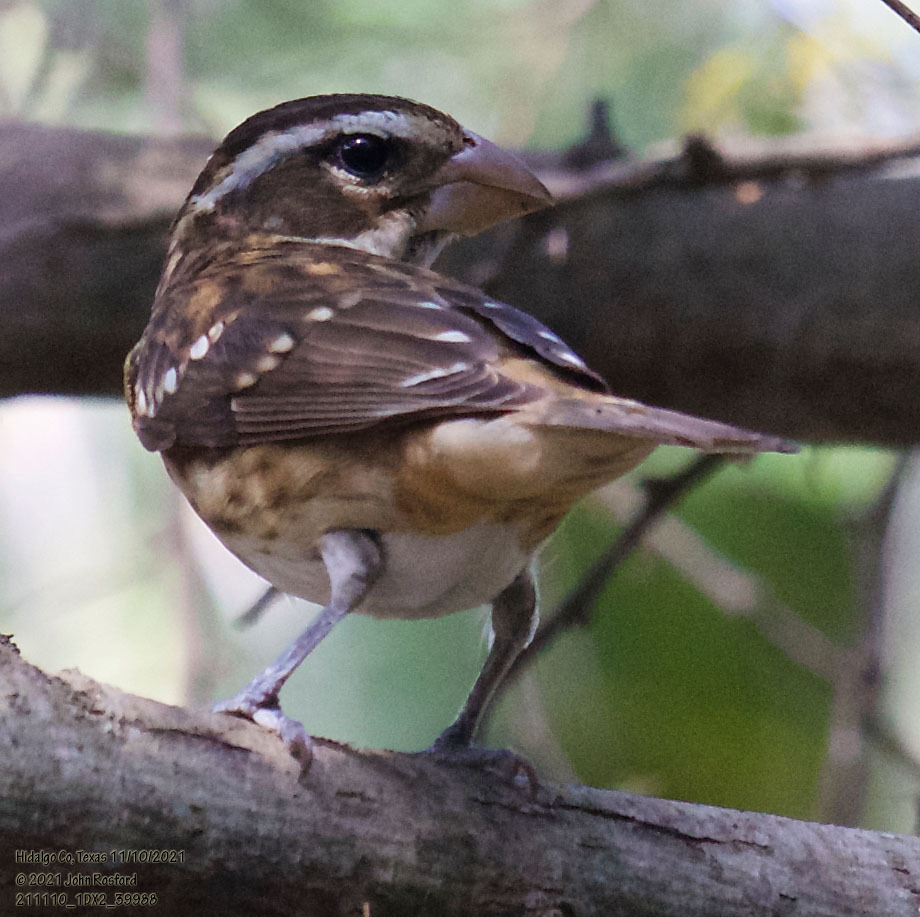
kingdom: Animalia
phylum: Chordata
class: Aves
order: Passeriformes
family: Cardinalidae
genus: Pheucticus
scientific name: Pheucticus ludovicianus
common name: Rose-breasted grosbeak
